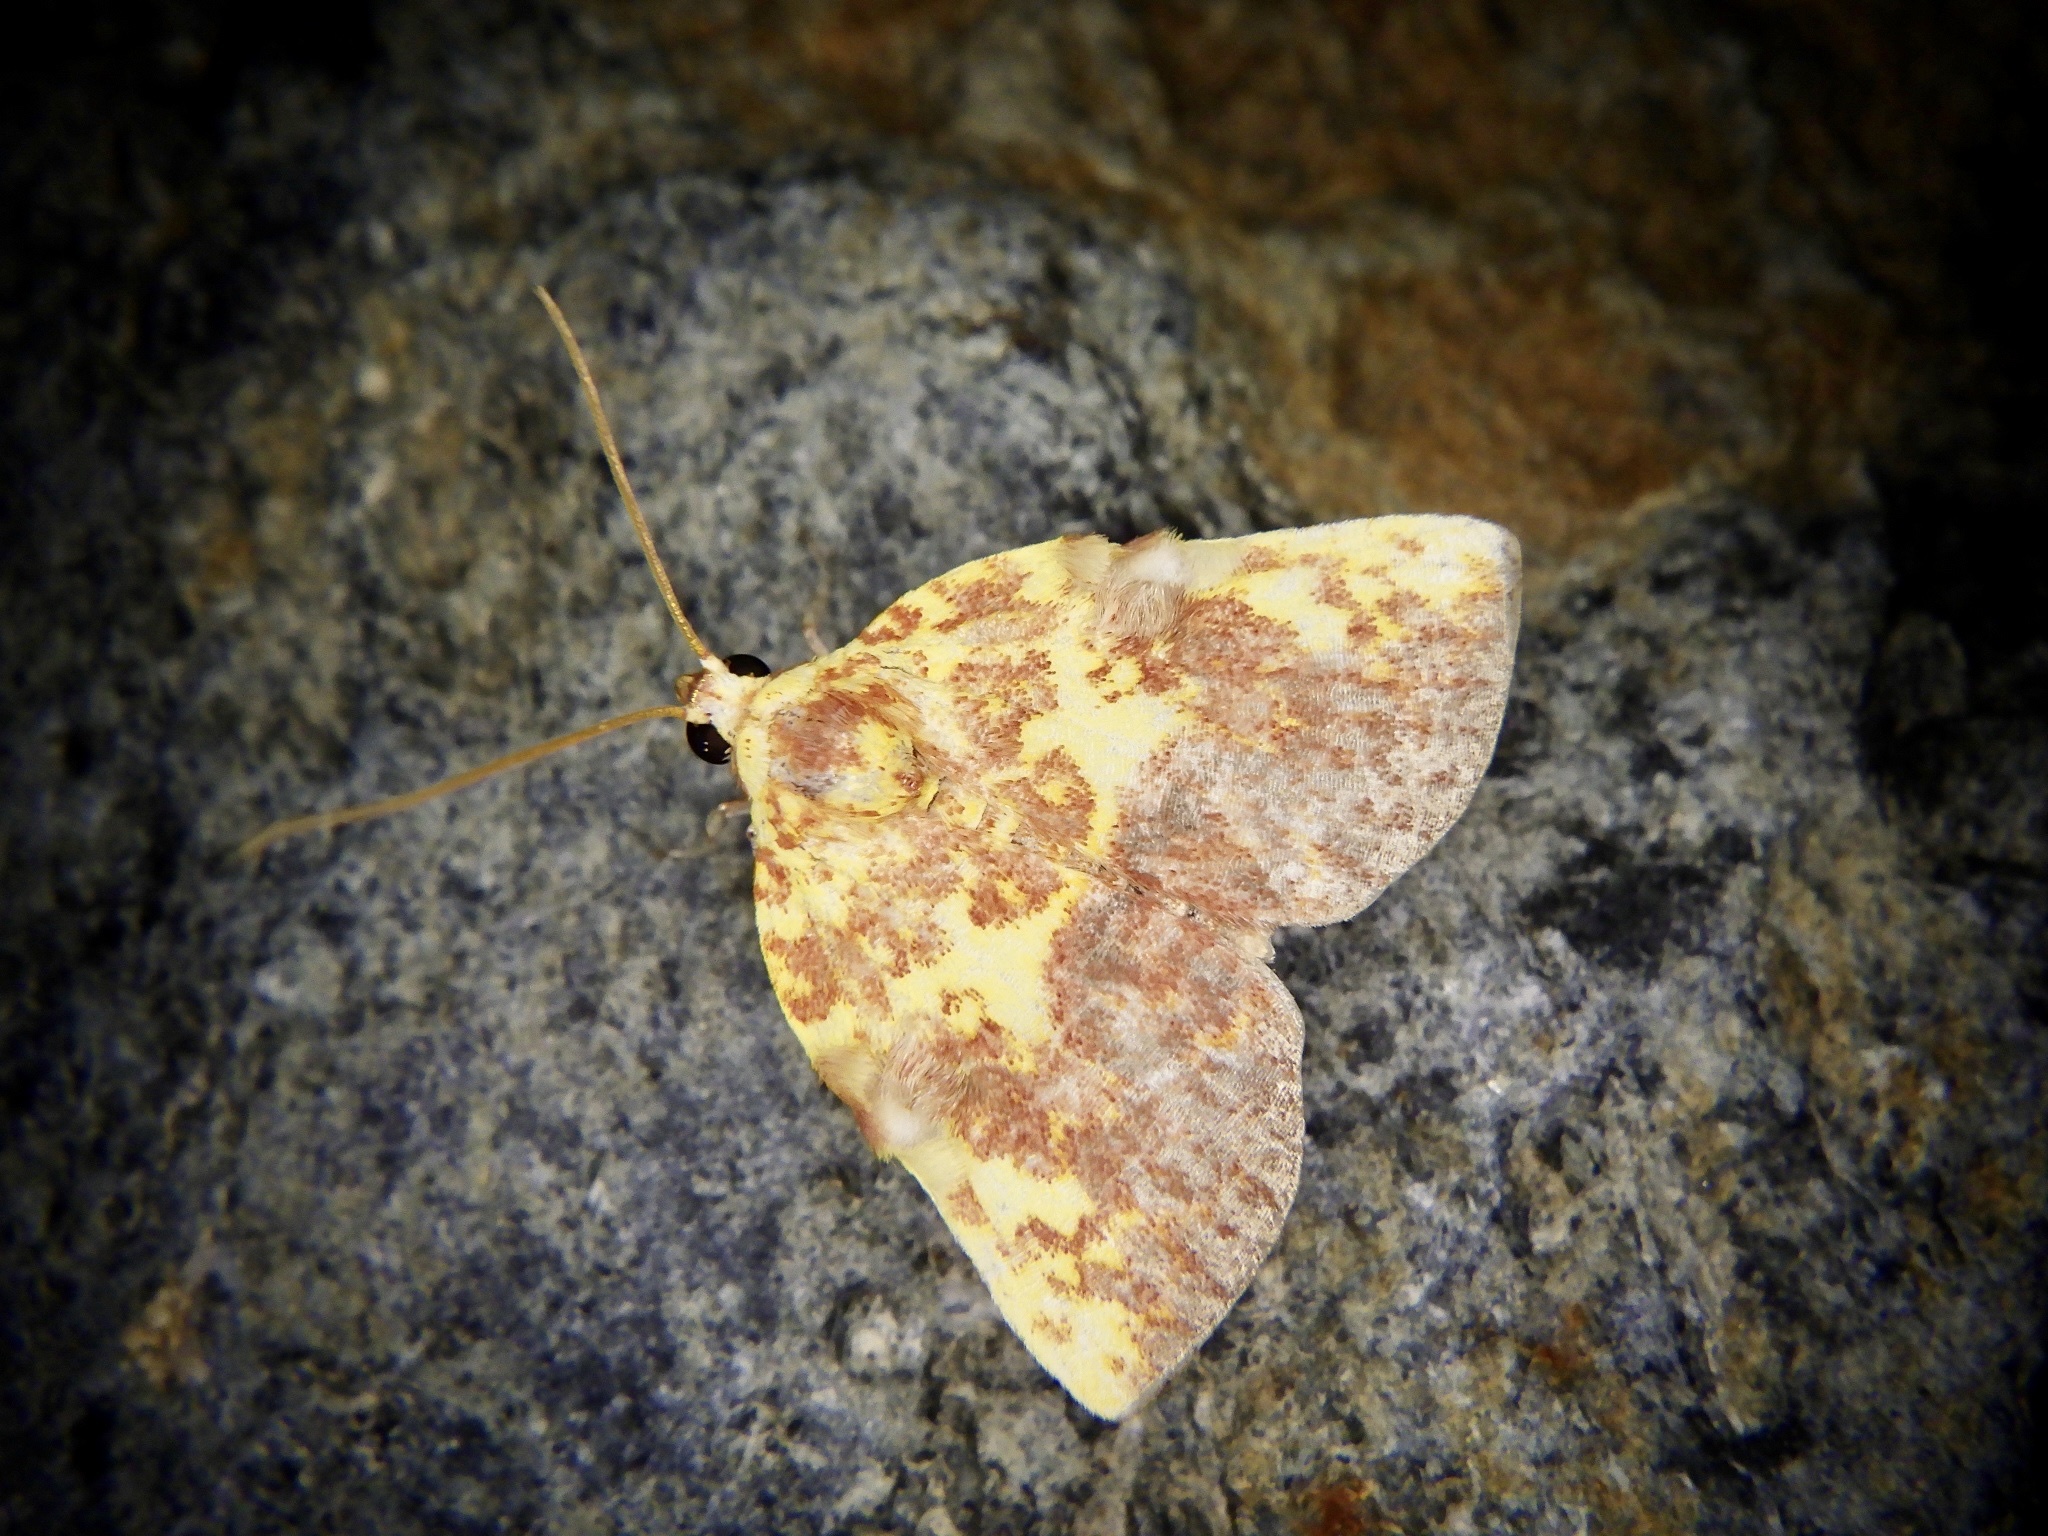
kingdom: Animalia
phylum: Arthropoda
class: Insecta
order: Lepidoptera
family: Nolidae
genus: Siglophora
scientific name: Siglophora ferreilutea
